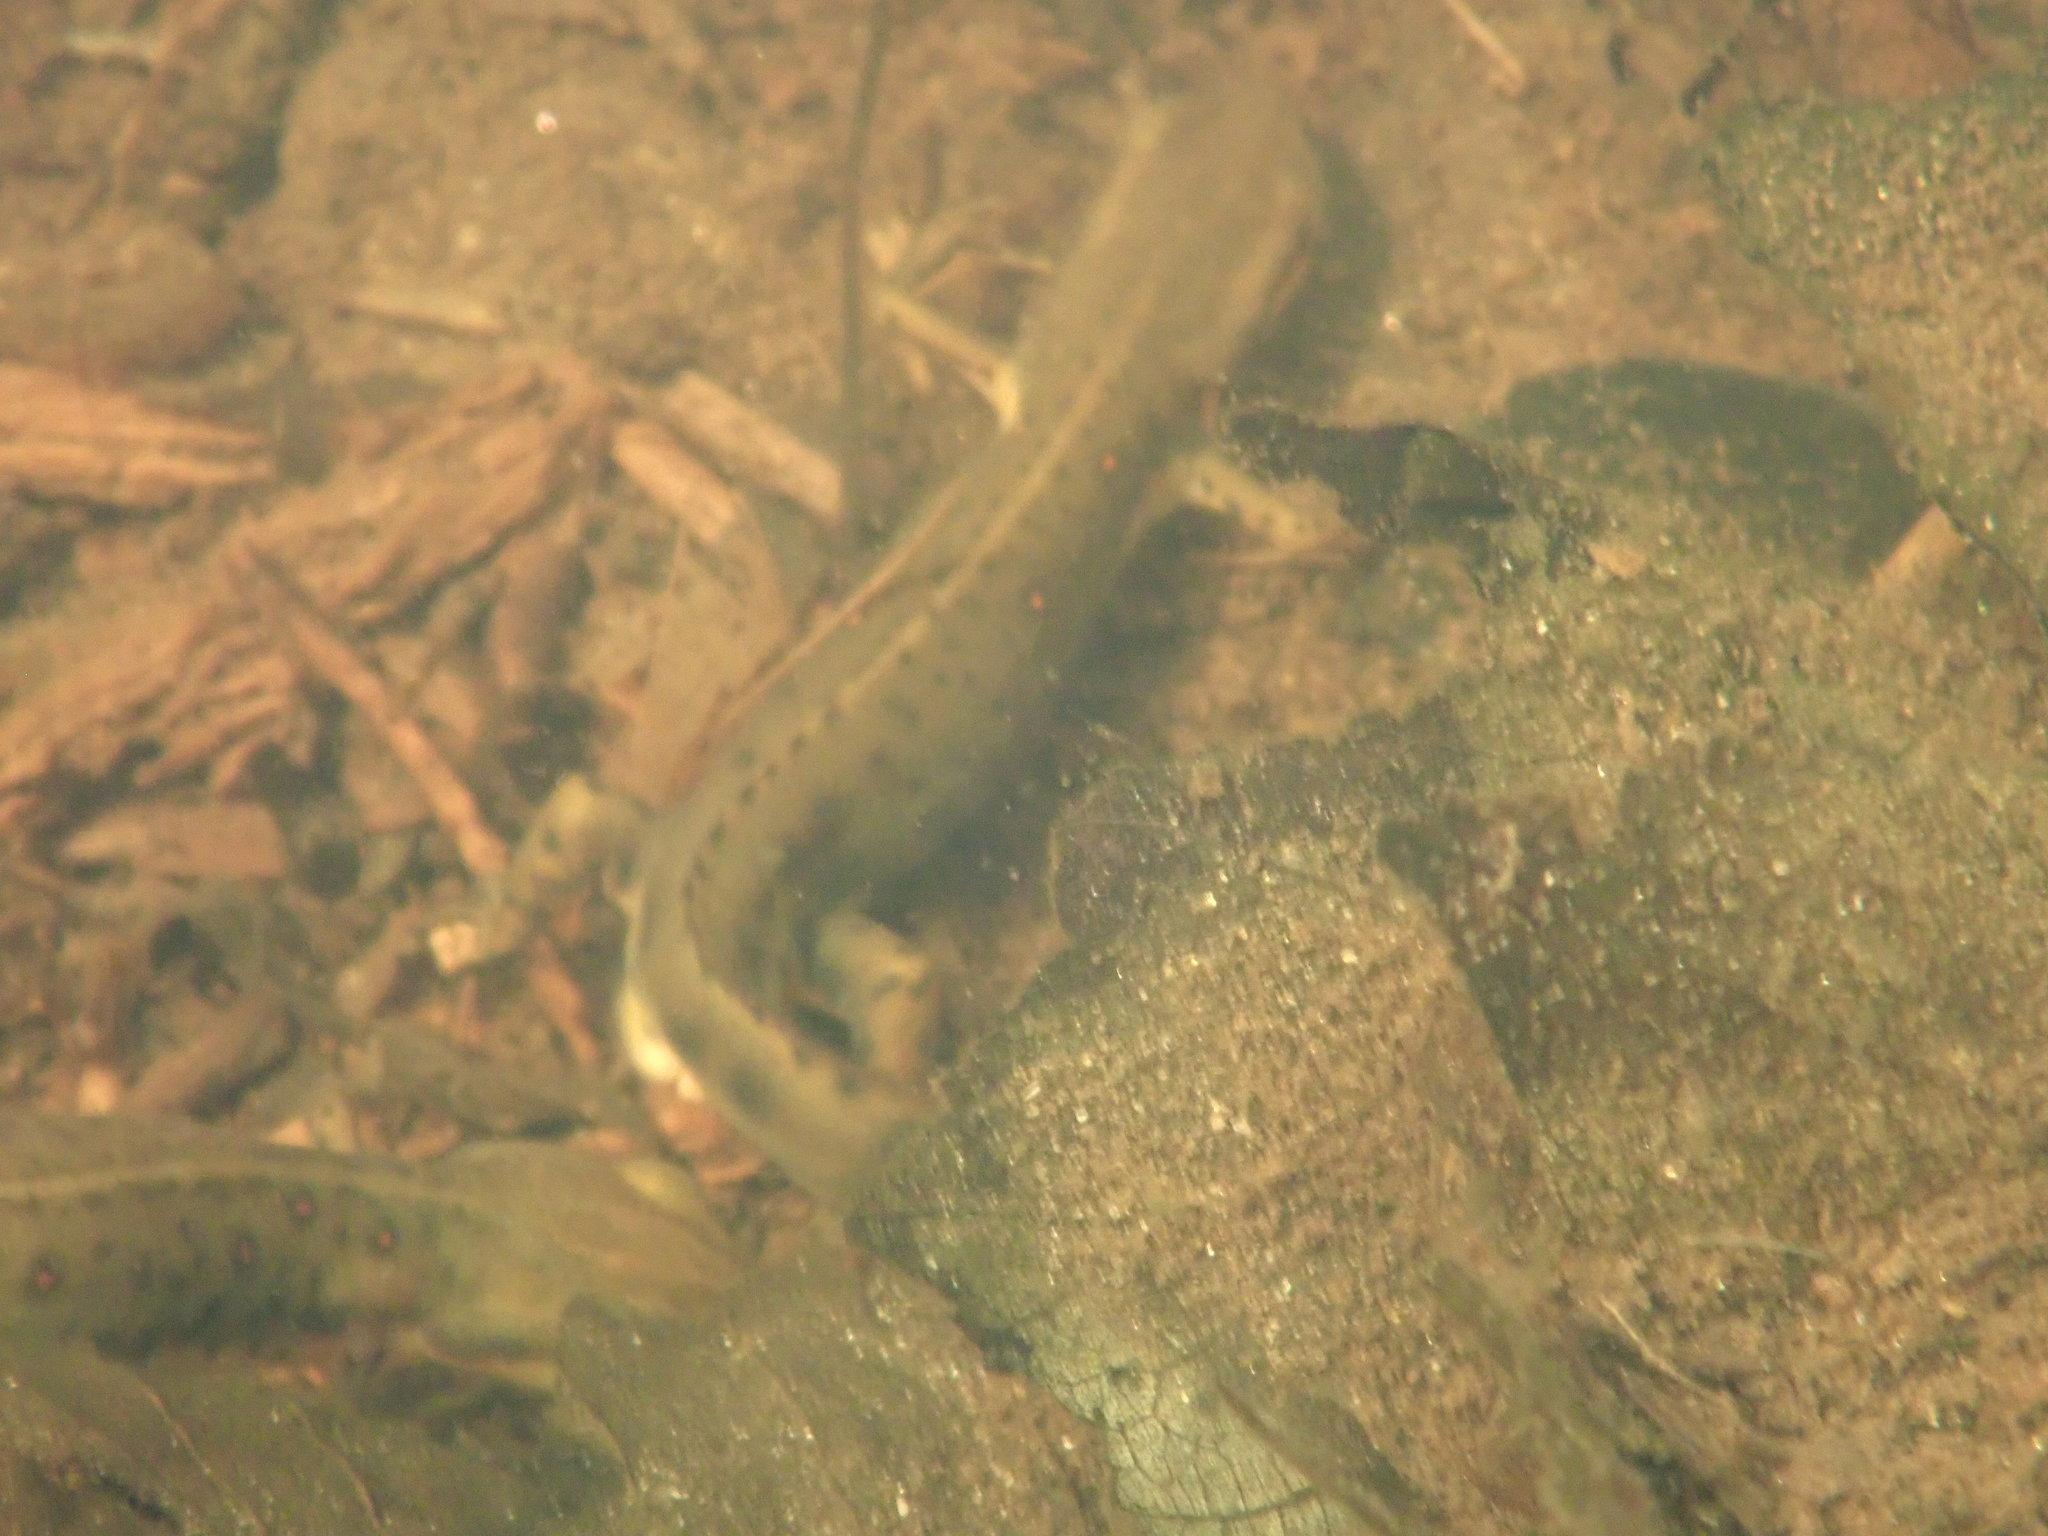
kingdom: Animalia
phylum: Chordata
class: Amphibia
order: Caudata
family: Salamandridae
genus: Notophthalmus
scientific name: Notophthalmus viridescens
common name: Eastern newt
